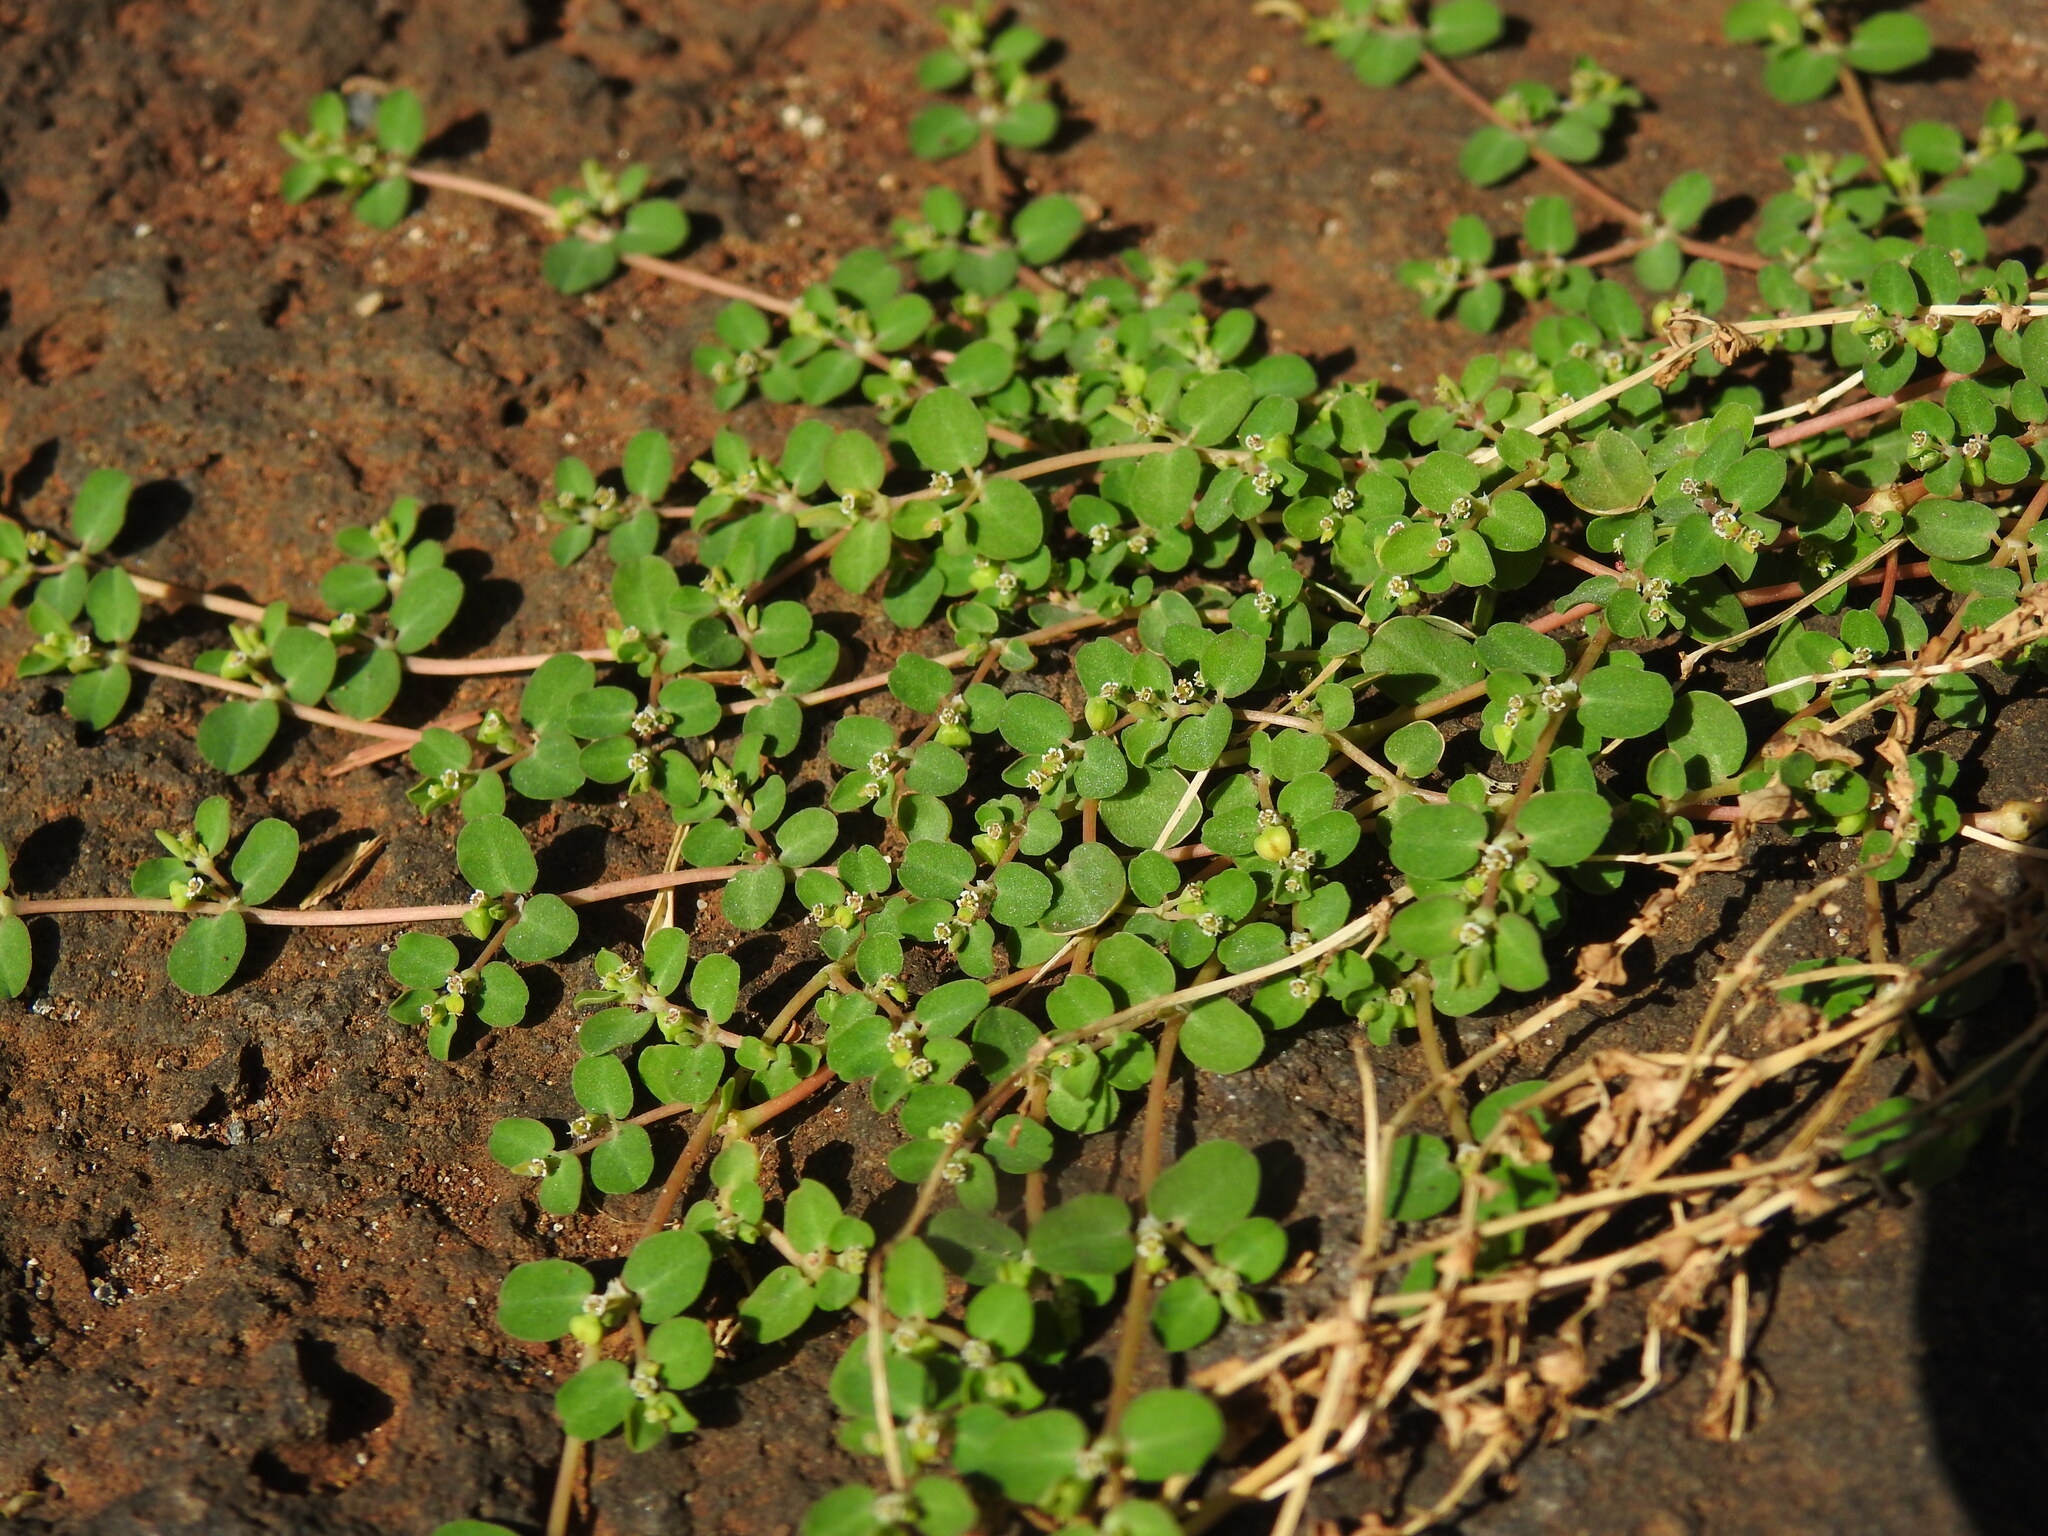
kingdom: Plantae
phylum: Tracheophyta
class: Magnoliopsida
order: Malpighiales
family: Euphorbiaceae
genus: Euphorbia
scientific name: Euphorbia serpens
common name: Matted sandmat
